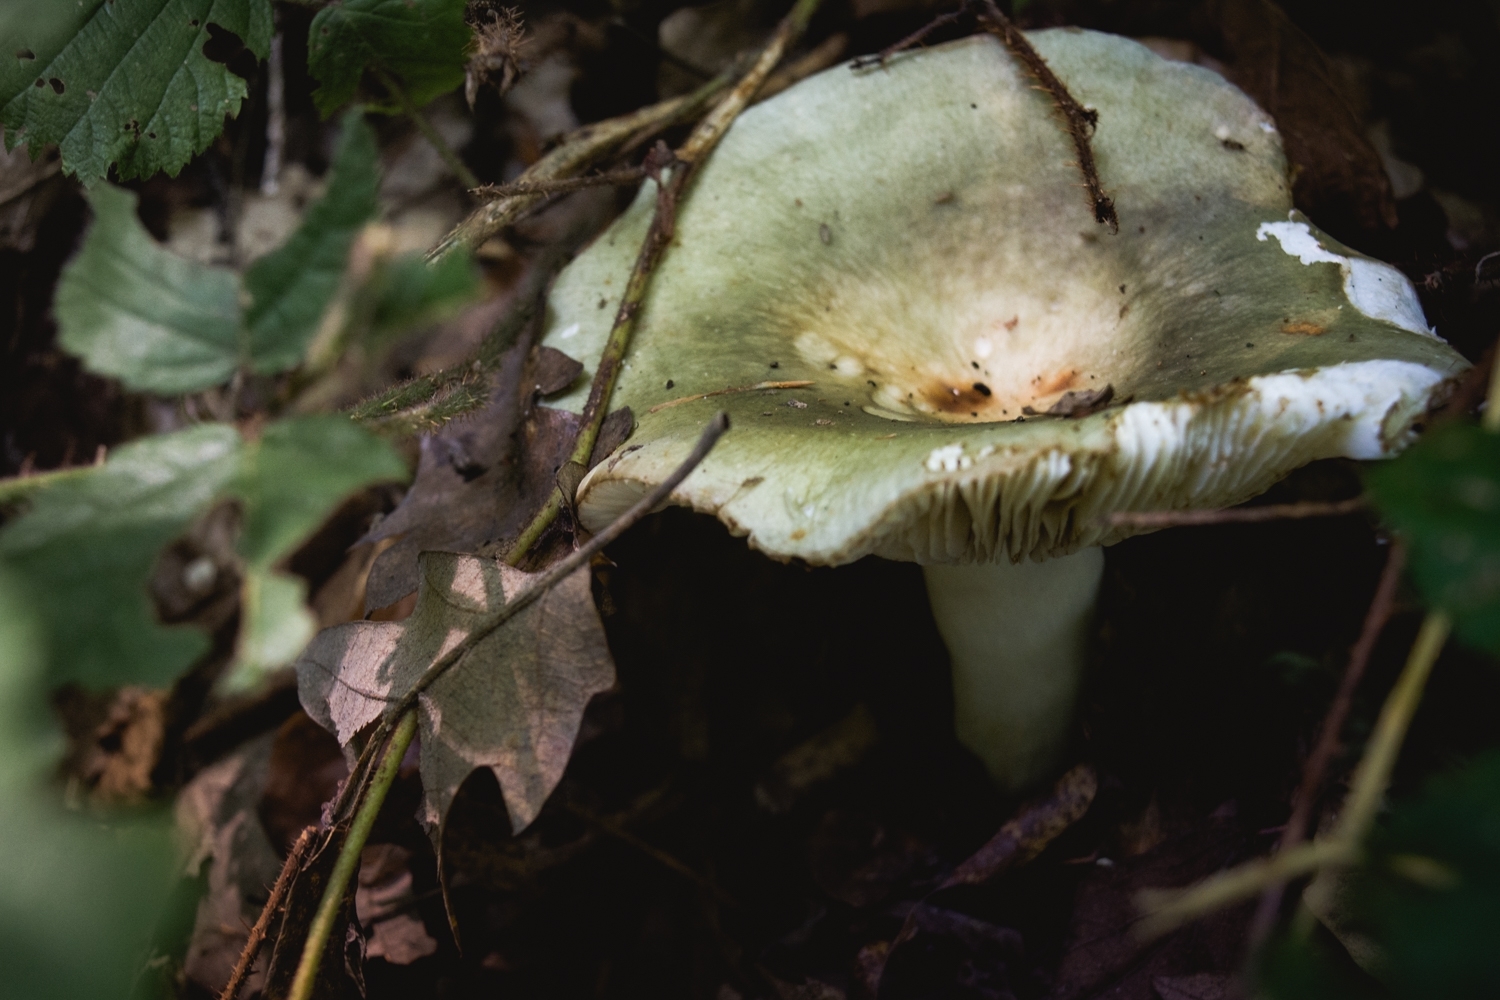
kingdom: Fungi
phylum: Basidiomycota
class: Agaricomycetes
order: Russulales
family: Russulaceae
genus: Russula
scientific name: Russula heterophylla
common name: Greasy green brittlegill
